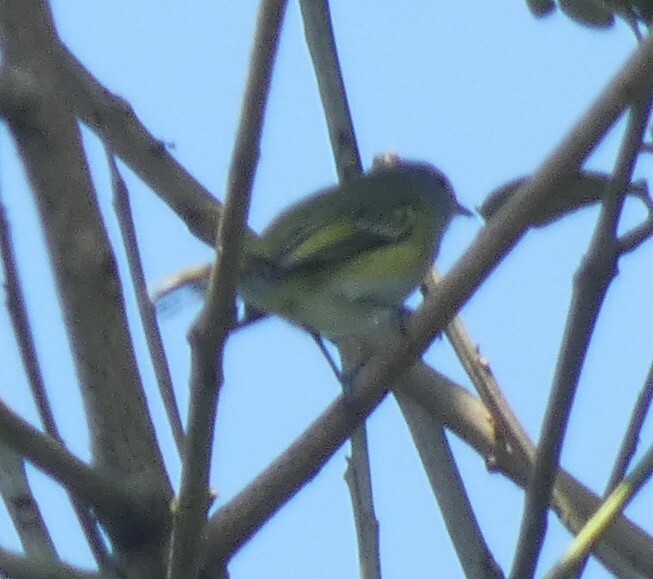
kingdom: Animalia
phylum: Chordata
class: Aves
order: Passeriformes
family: Tyrannidae
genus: Phyllomyias
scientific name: Phyllomyias griseocapilla
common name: Grey-capped tyrannulet
